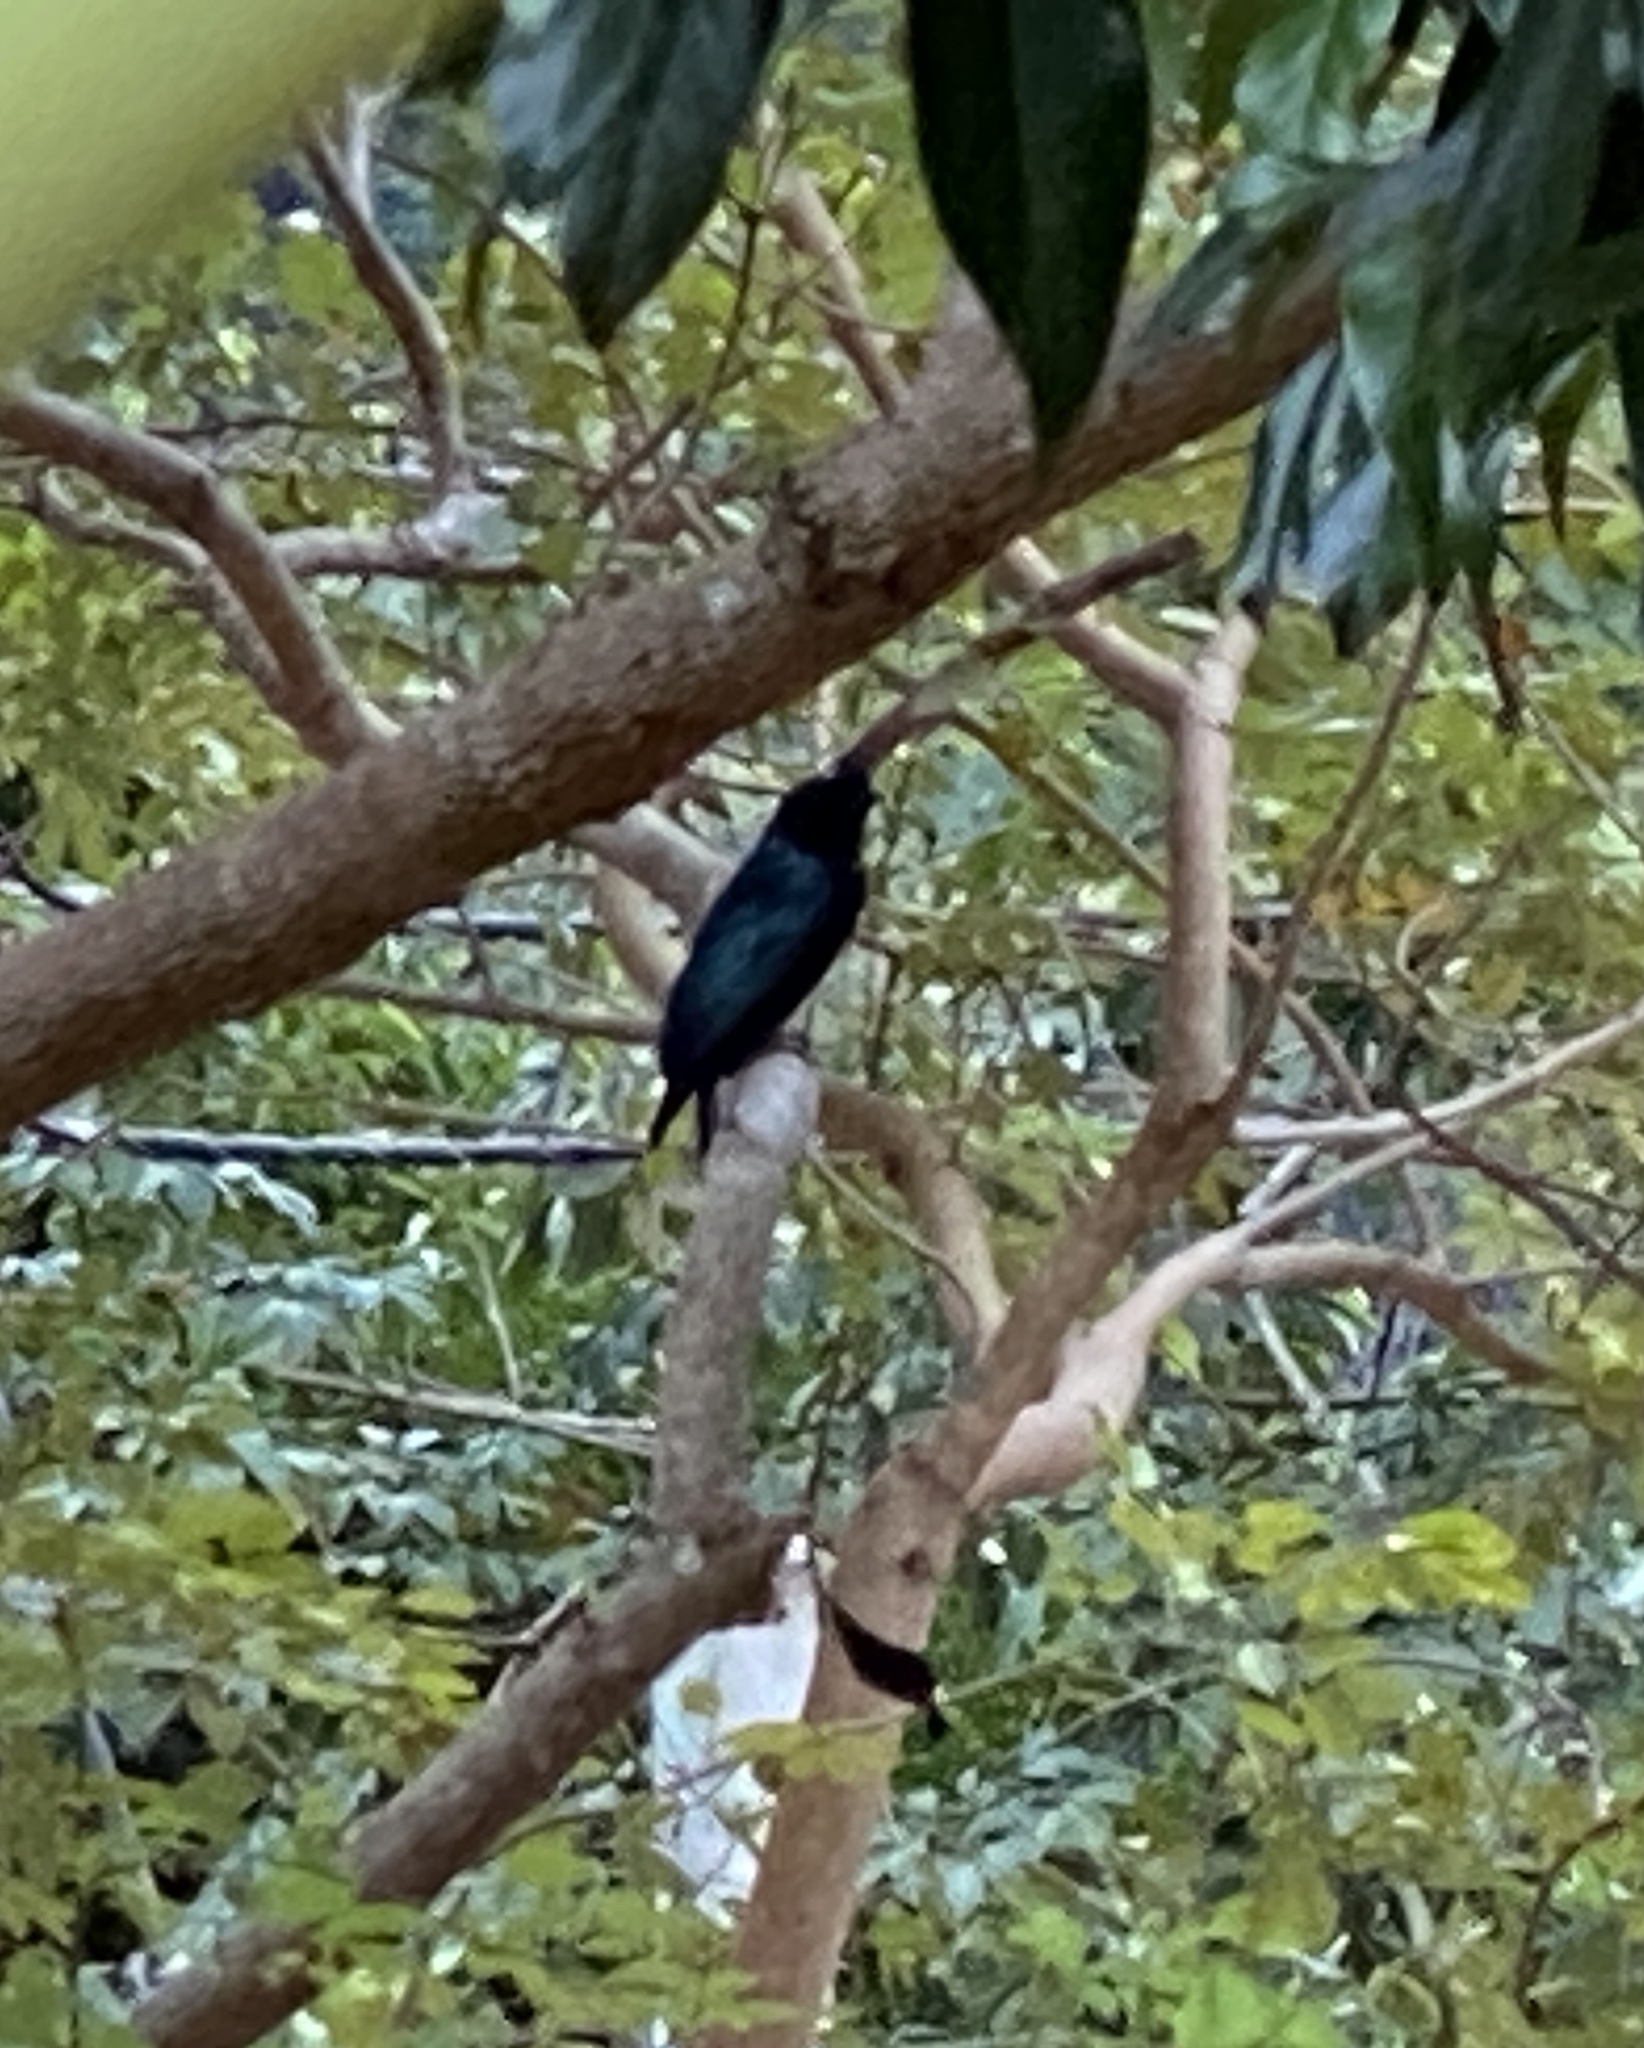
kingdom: Animalia
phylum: Chordata
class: Aves
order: Passeriformes
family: Dicruridae
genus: Dicrurus
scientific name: Dicrurus paradiseus
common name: Greater racket-tailed drongo
